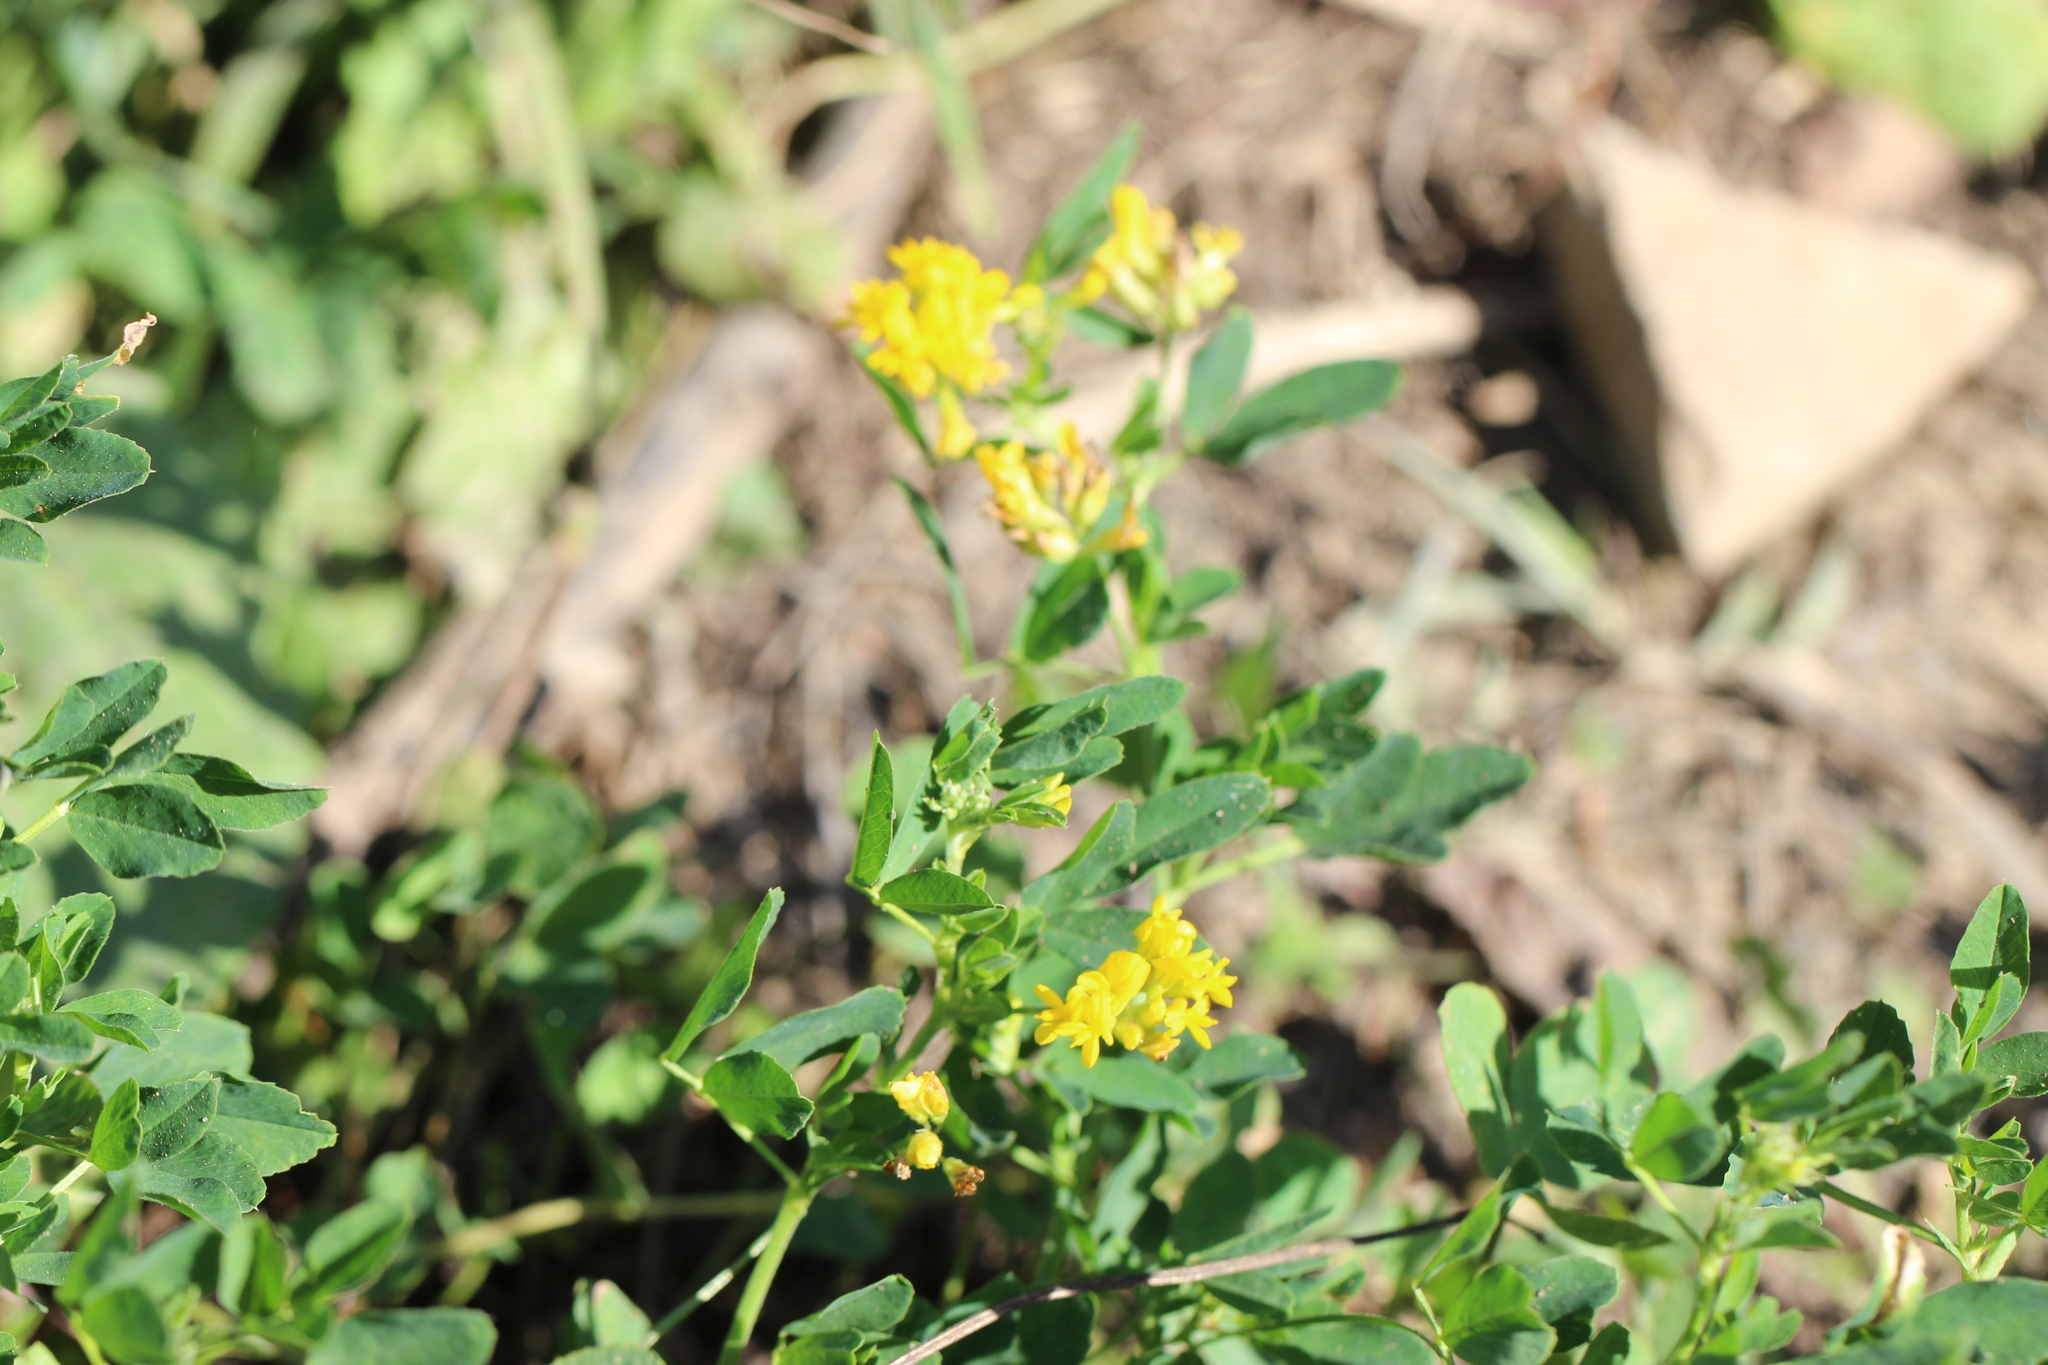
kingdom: Plantae
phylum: Tracheophyta
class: Magnoliopsida
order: Fabales
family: Fabaceae
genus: Medicago
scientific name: Medicago falcata
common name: Sickle medick
